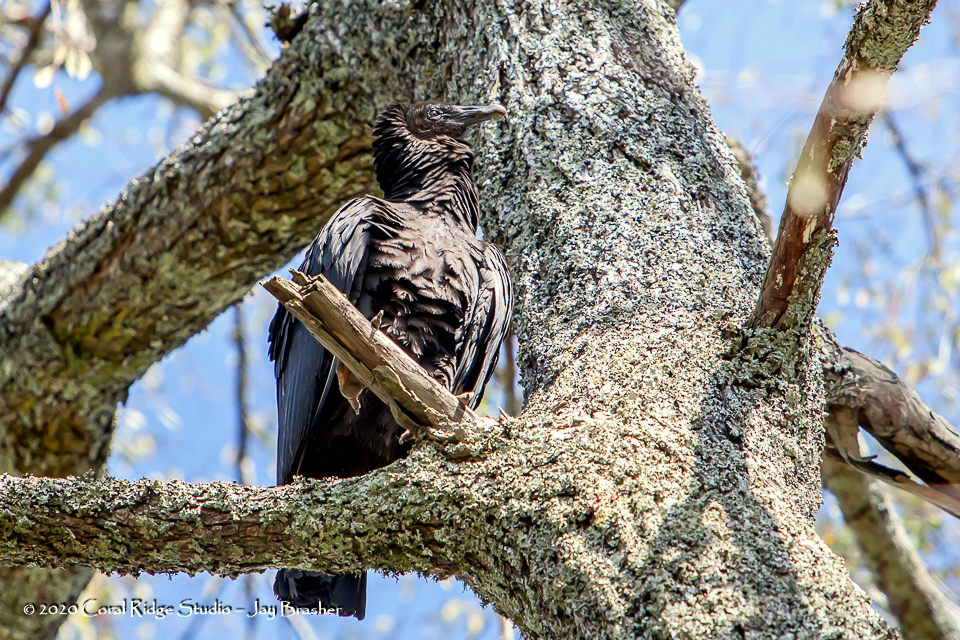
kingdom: Animalia
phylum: Chordata
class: Aves
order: Accipitriformes
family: Cathartidae
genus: Coragyps
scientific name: Coragyps atratus
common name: Black vulture
